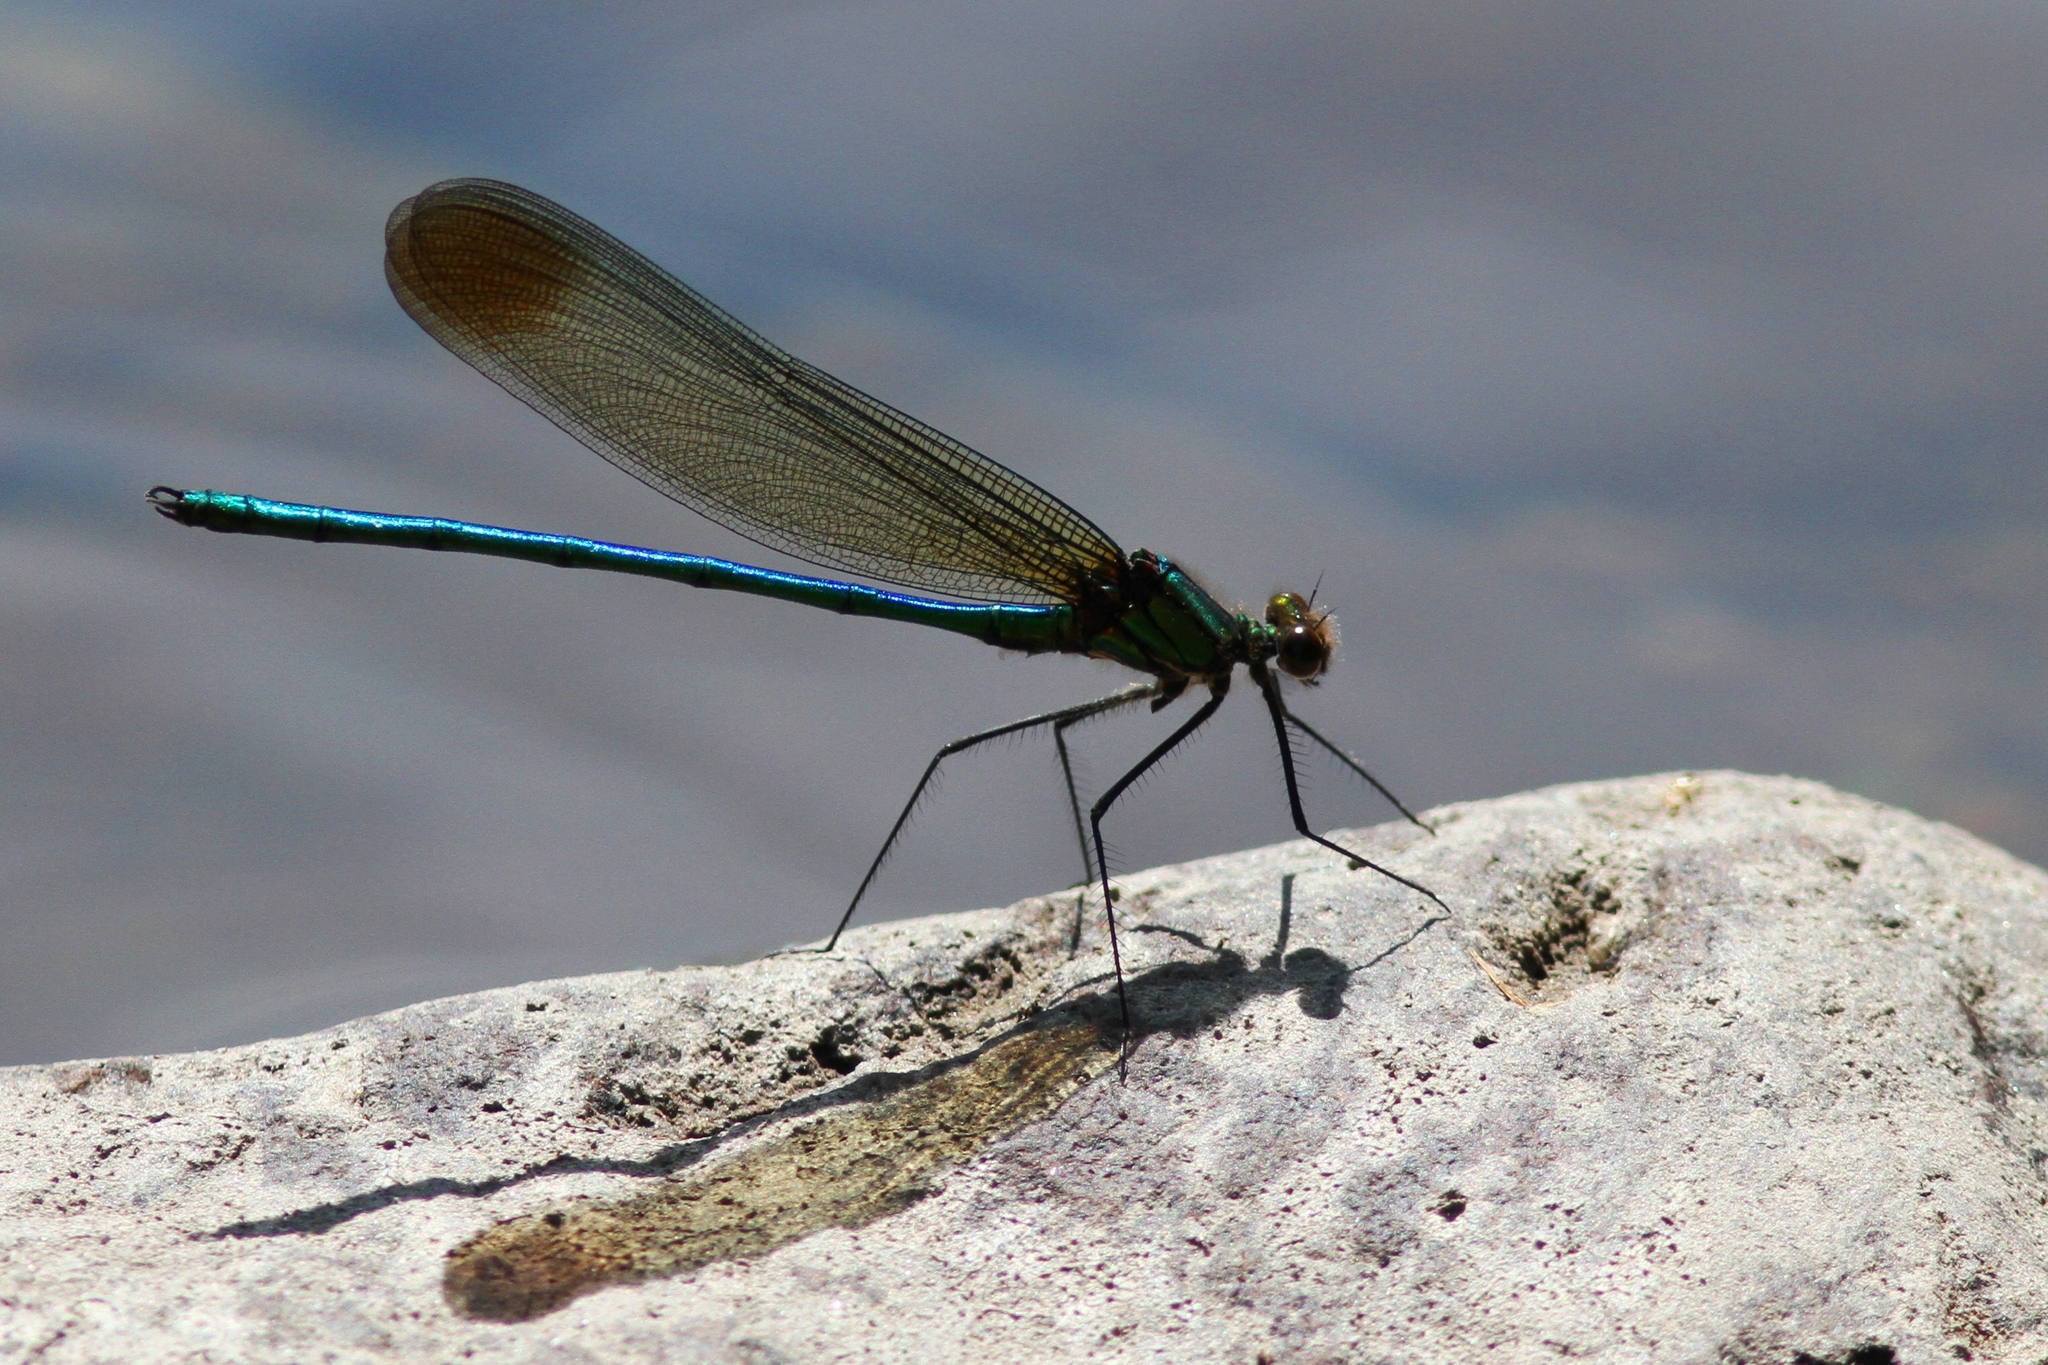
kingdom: Animalia
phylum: Arthropoda
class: Insecta
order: Odonata
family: Calopterygidae
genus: Calopteryx
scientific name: Calopteryx amata
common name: Superb jewelwing
